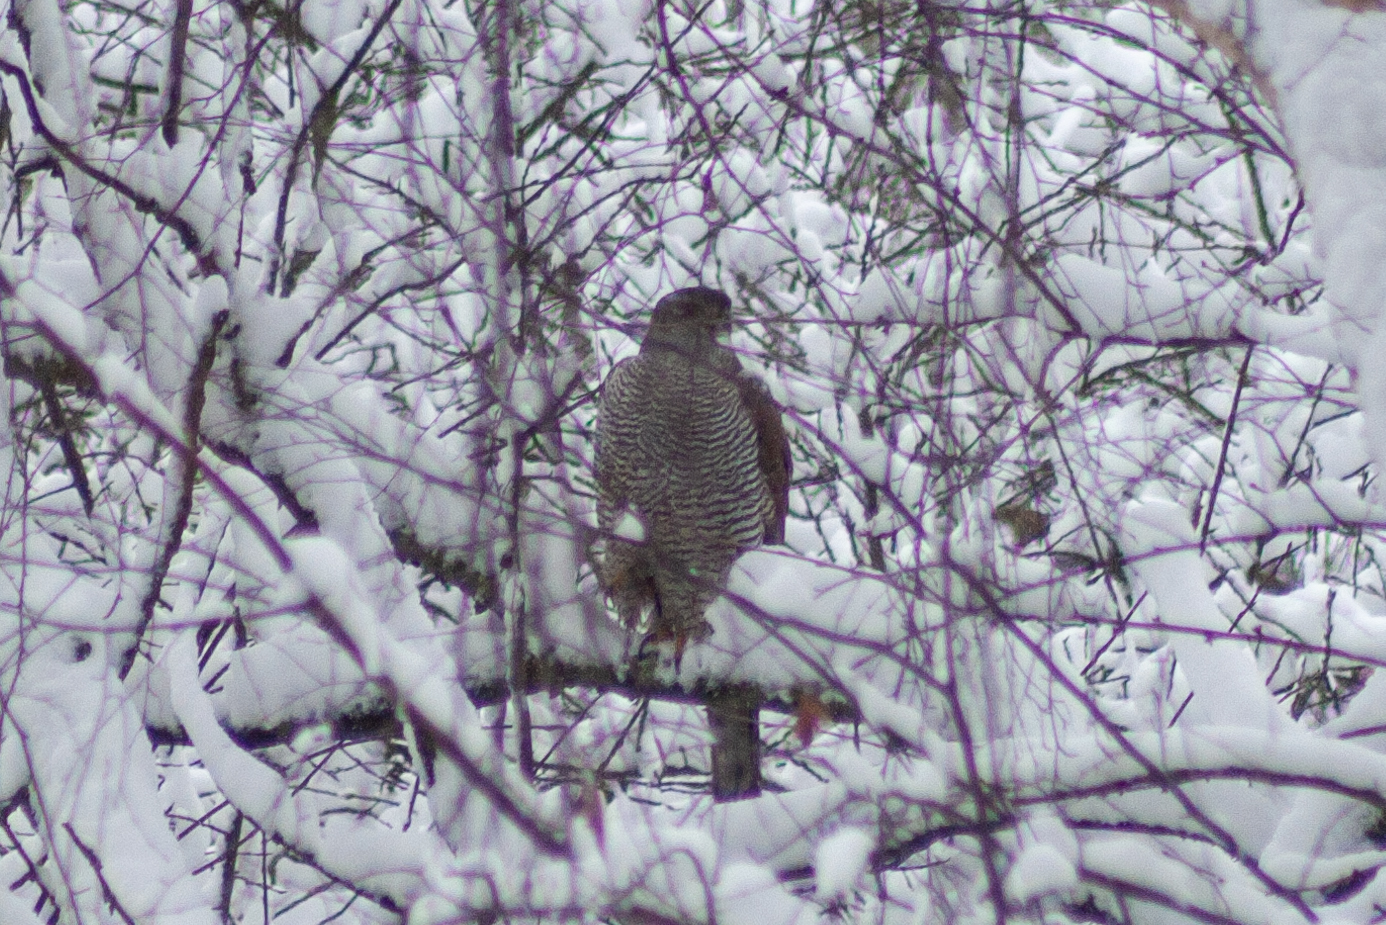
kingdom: Animalia
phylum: Chordata
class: Aves
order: Accipitriformes
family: Accipitridae
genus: Accipiter
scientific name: Accipiter gentilis
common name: Northern goshawk
